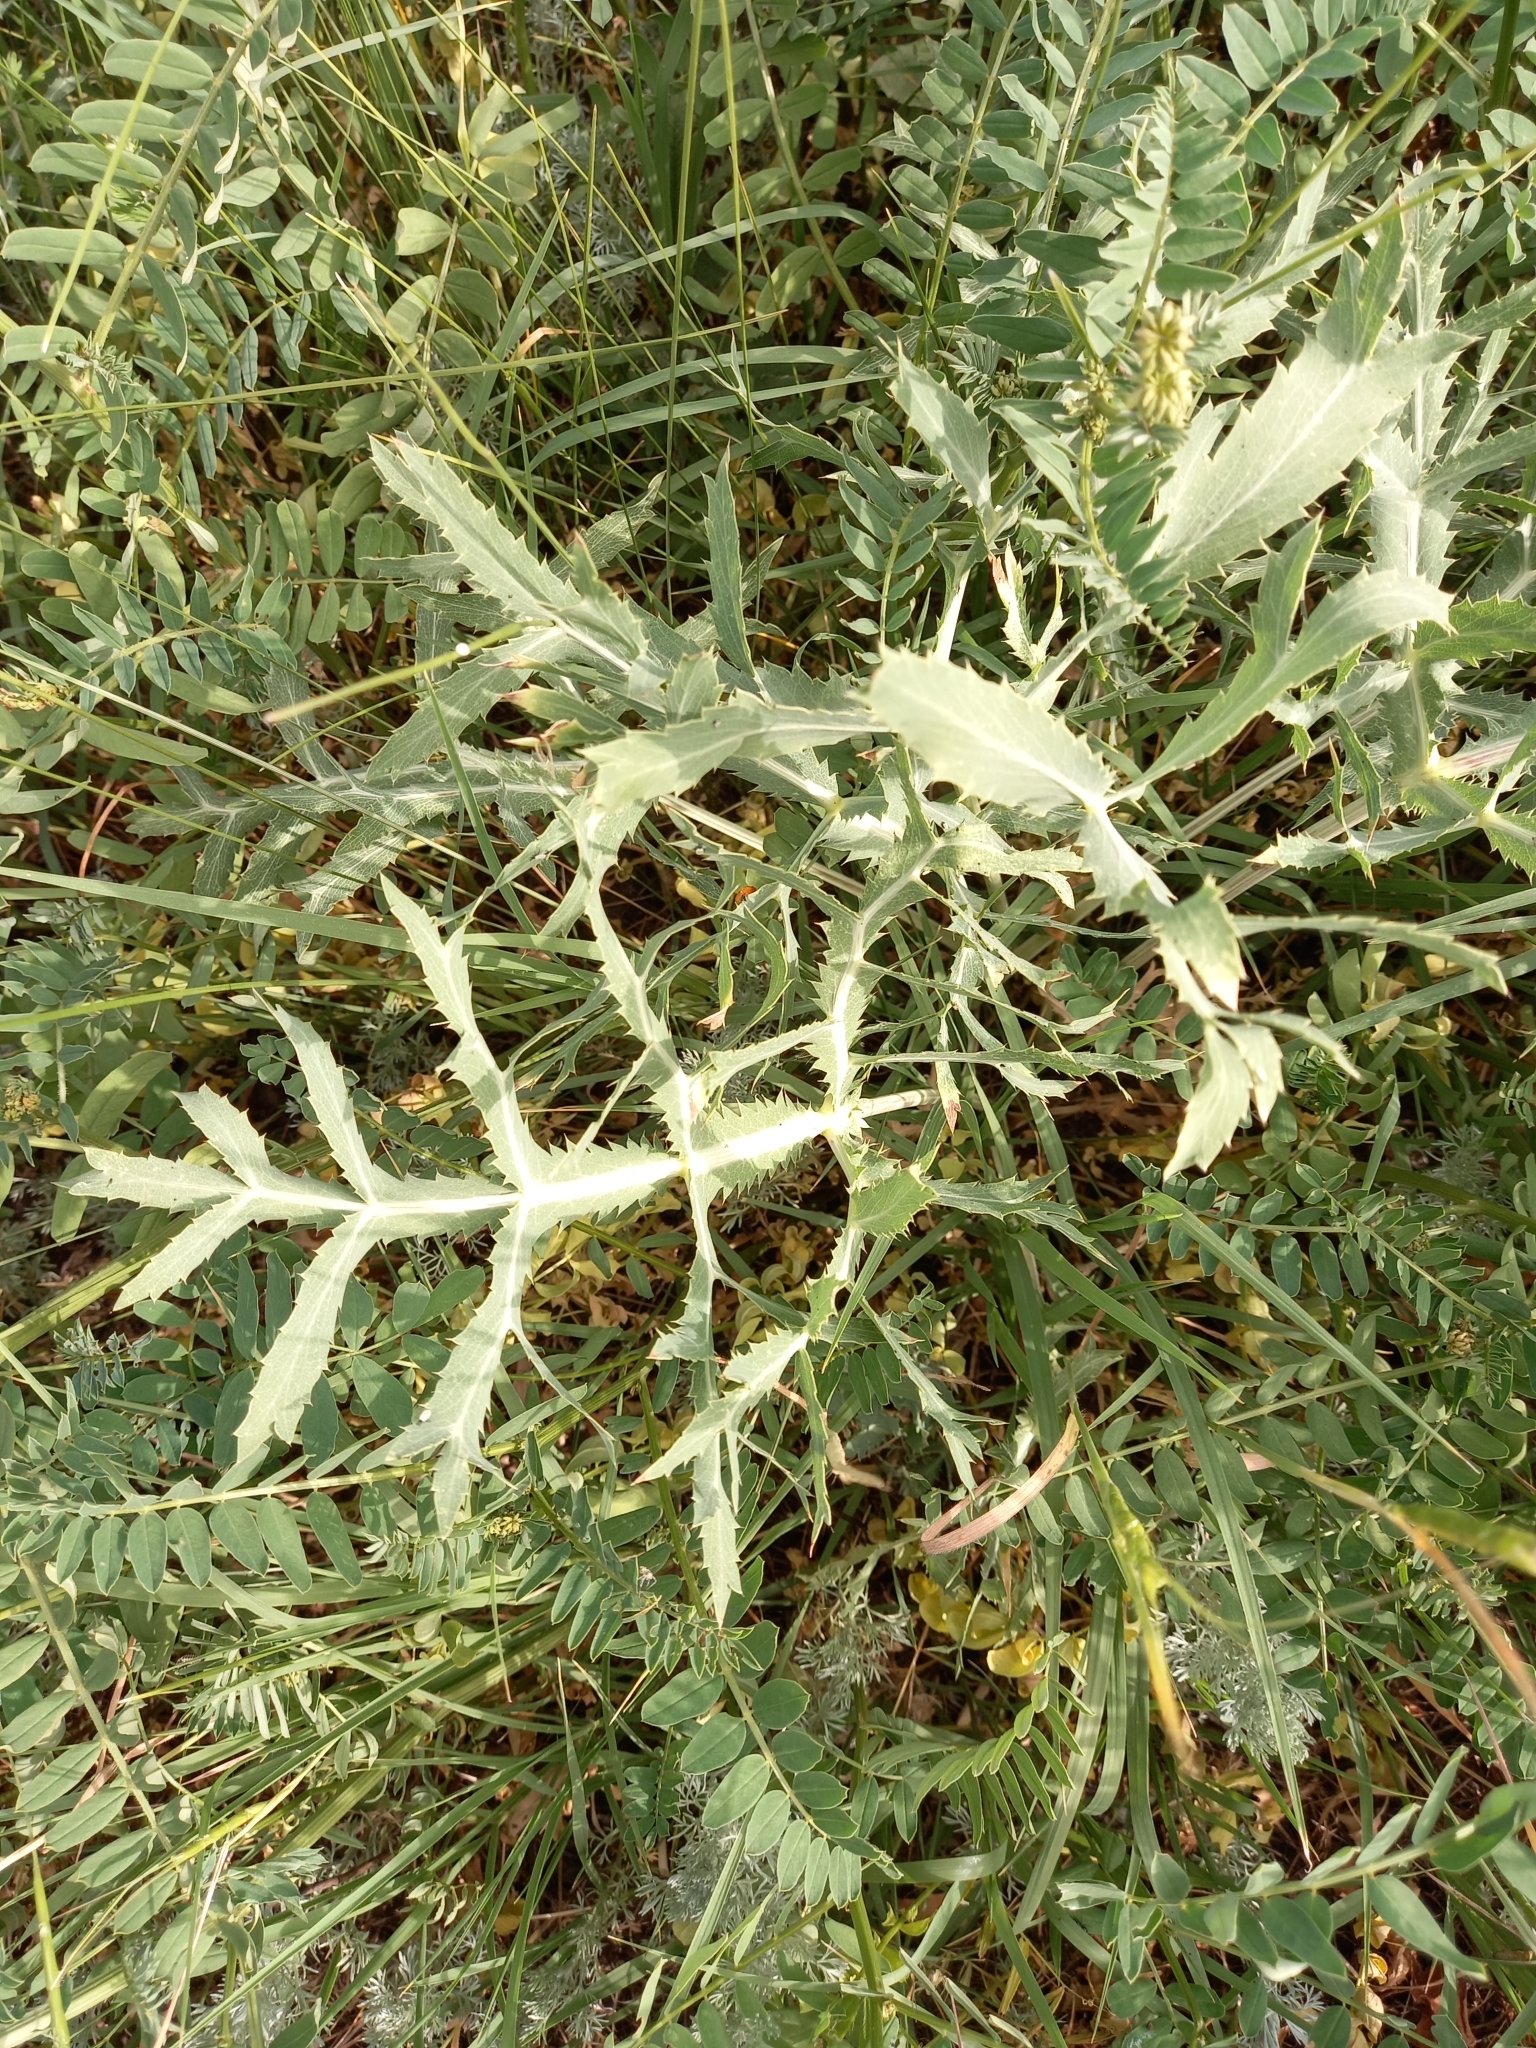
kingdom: Plantae
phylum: Tracheophyta
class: Magnoliopsida
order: Apiales
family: Apiaceae
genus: Eryngium
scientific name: Eryngium campestre
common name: Field eryngo
